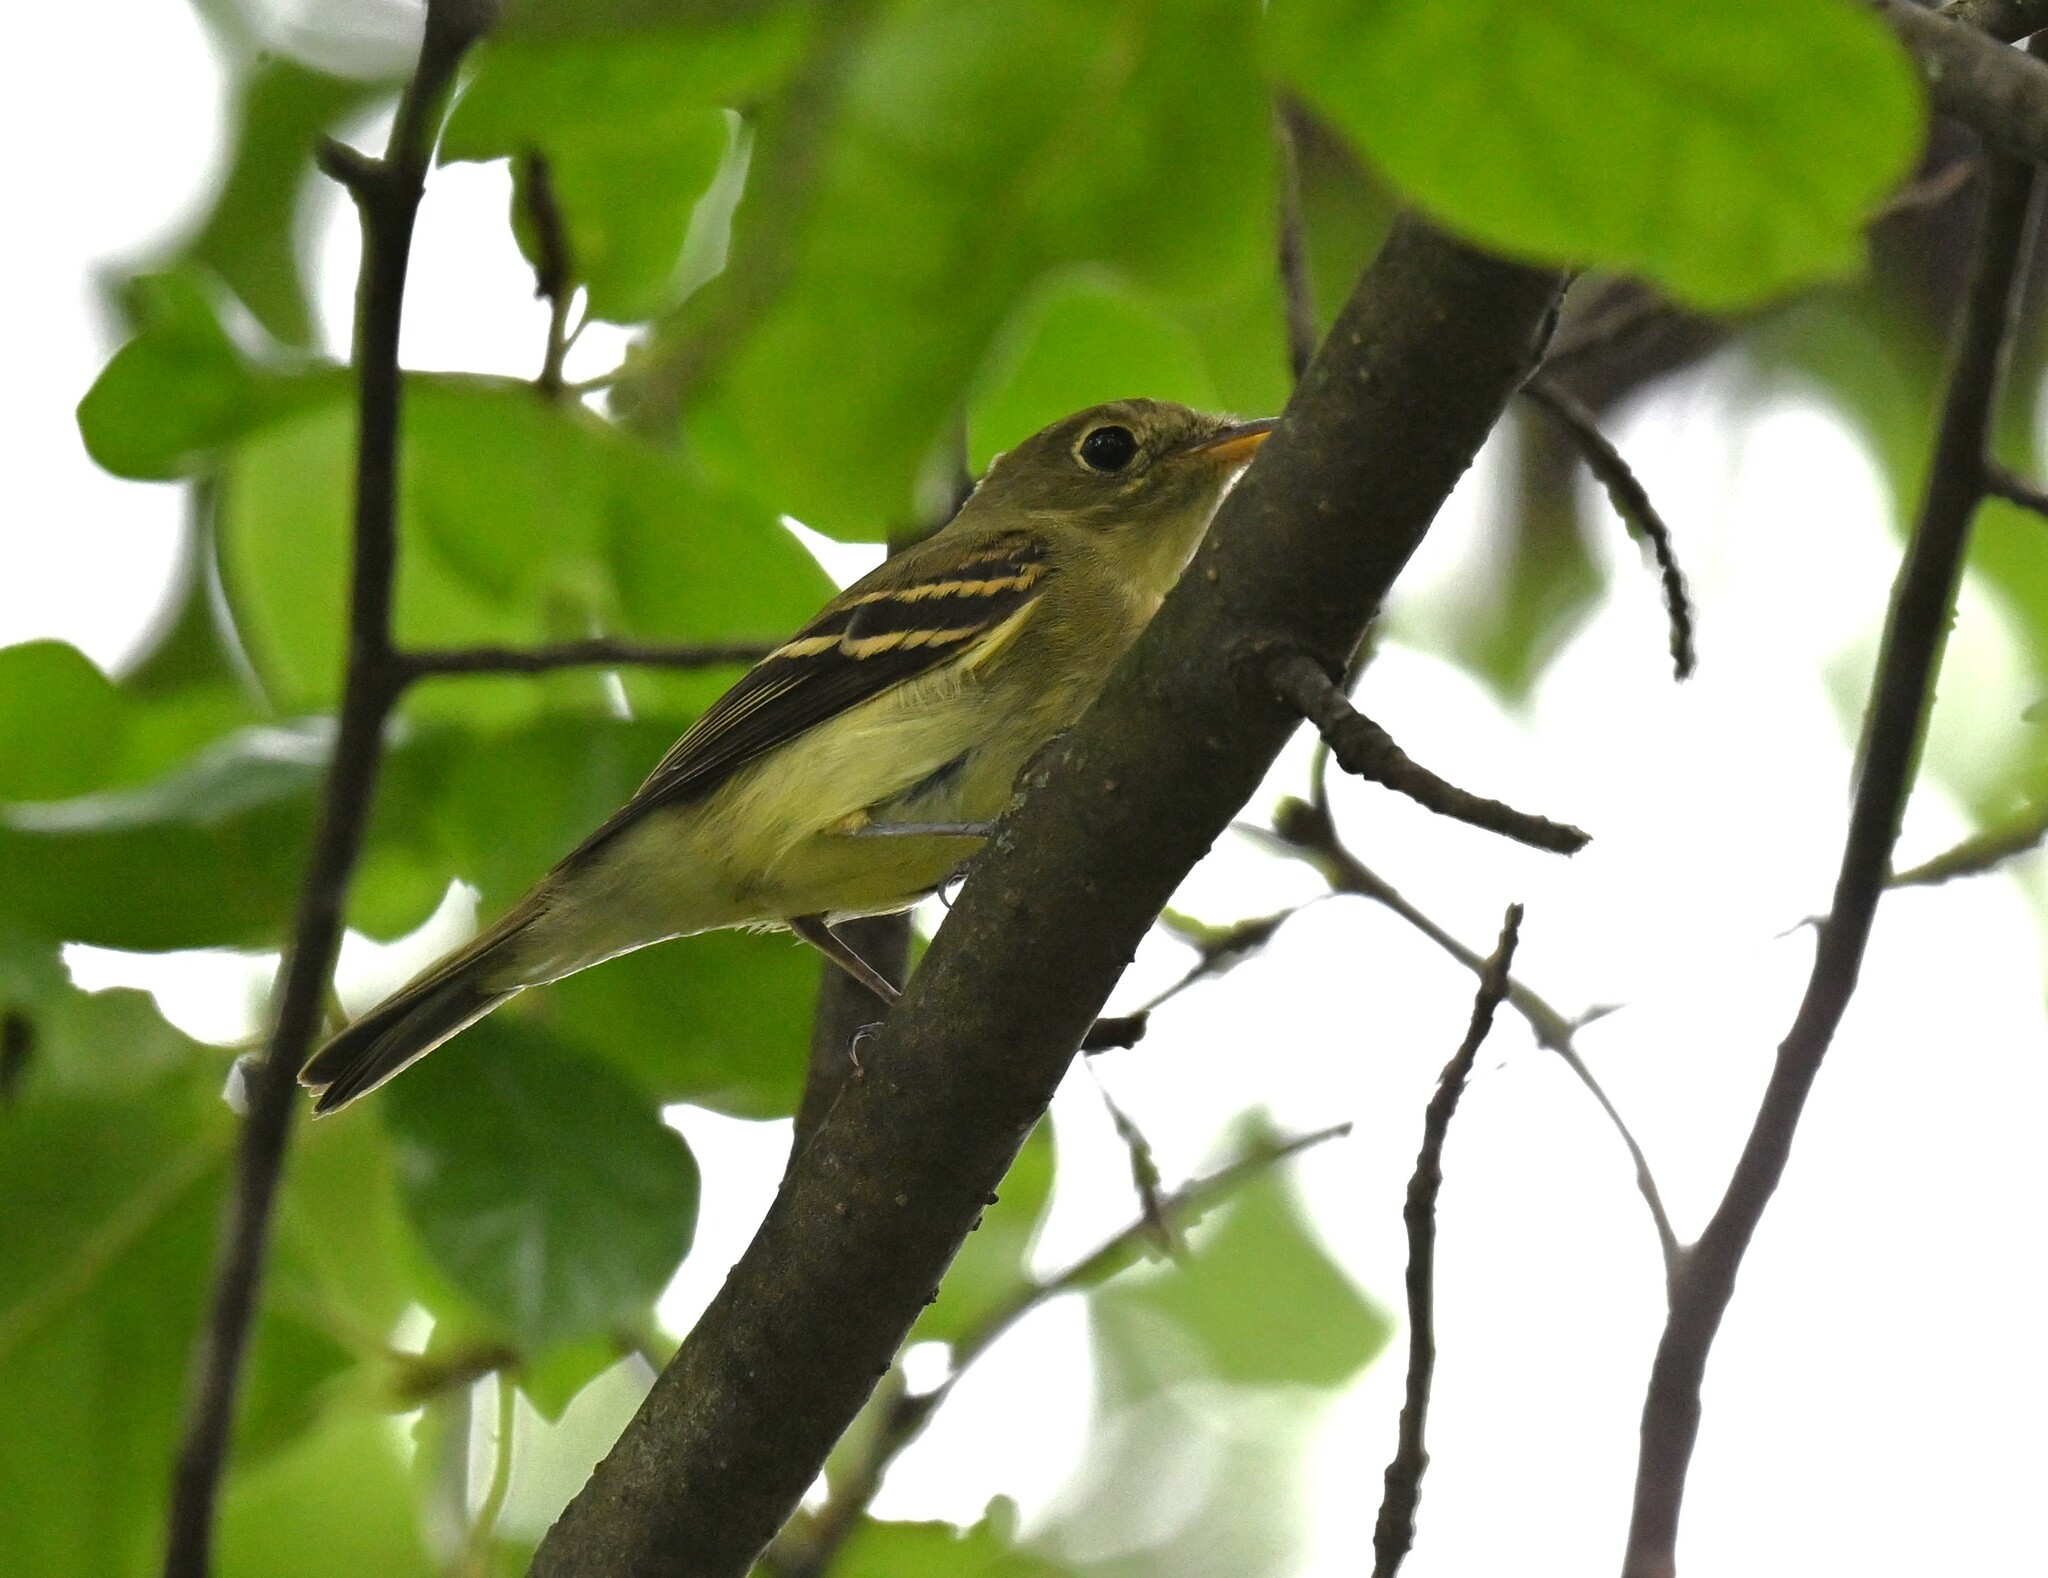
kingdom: Animalia
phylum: Chordata
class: Aves
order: Passeriformes
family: Tyrannidae
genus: Empidonax
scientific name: Empidonax flaviventris
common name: Yellow-bellied flycatcher
